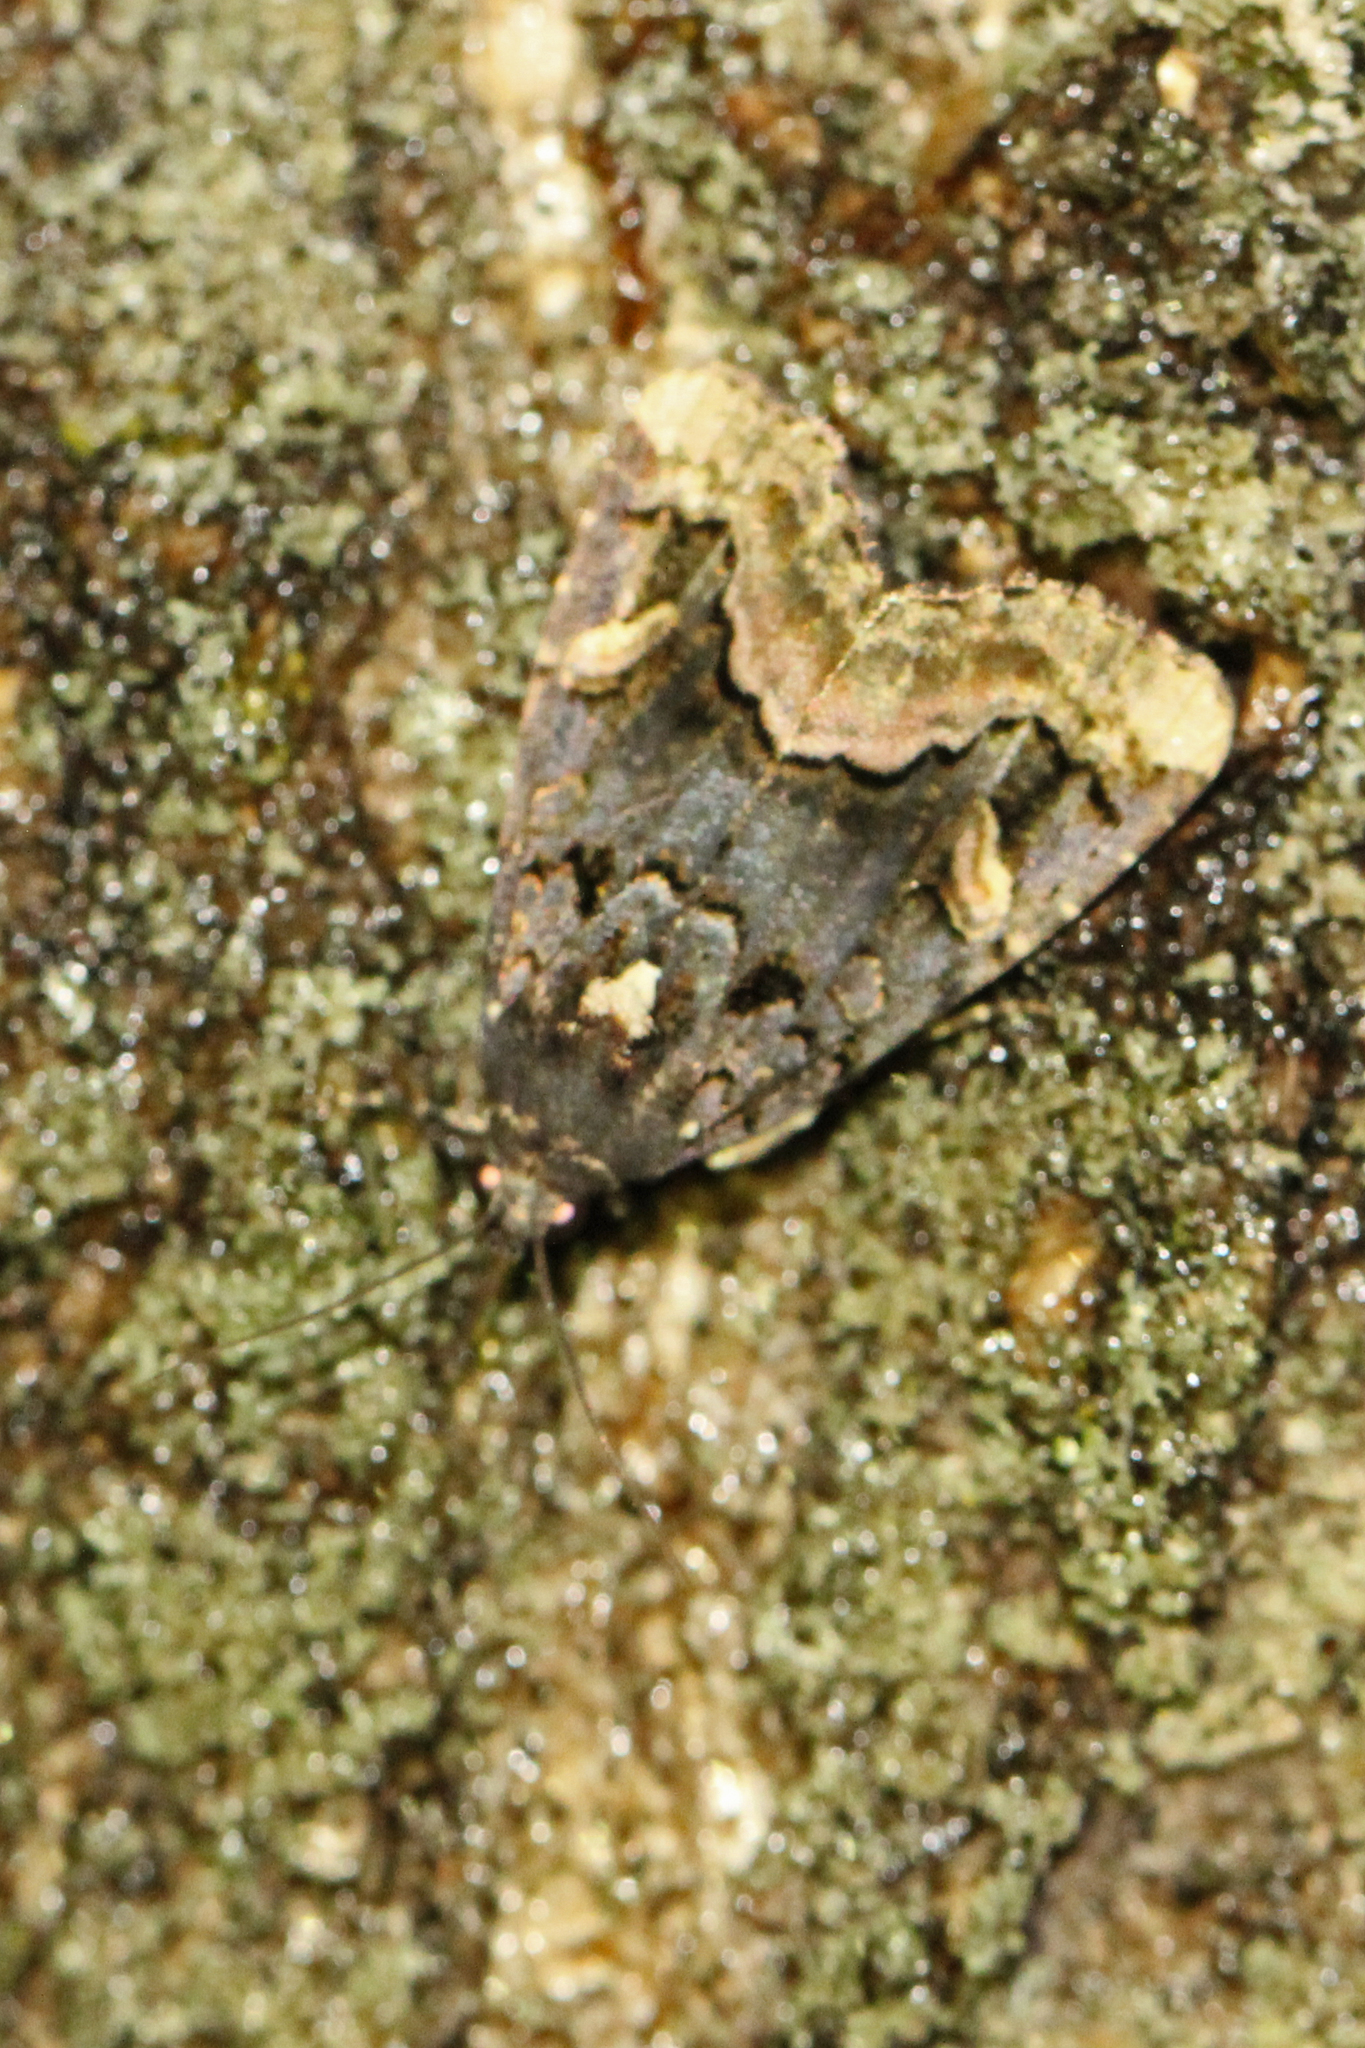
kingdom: Animalia
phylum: Arthropoda
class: Insecta
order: Lepidoptera
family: Noctuidae
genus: Homophoberia
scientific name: Homophoberia apicosa
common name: Black wedge-spot
